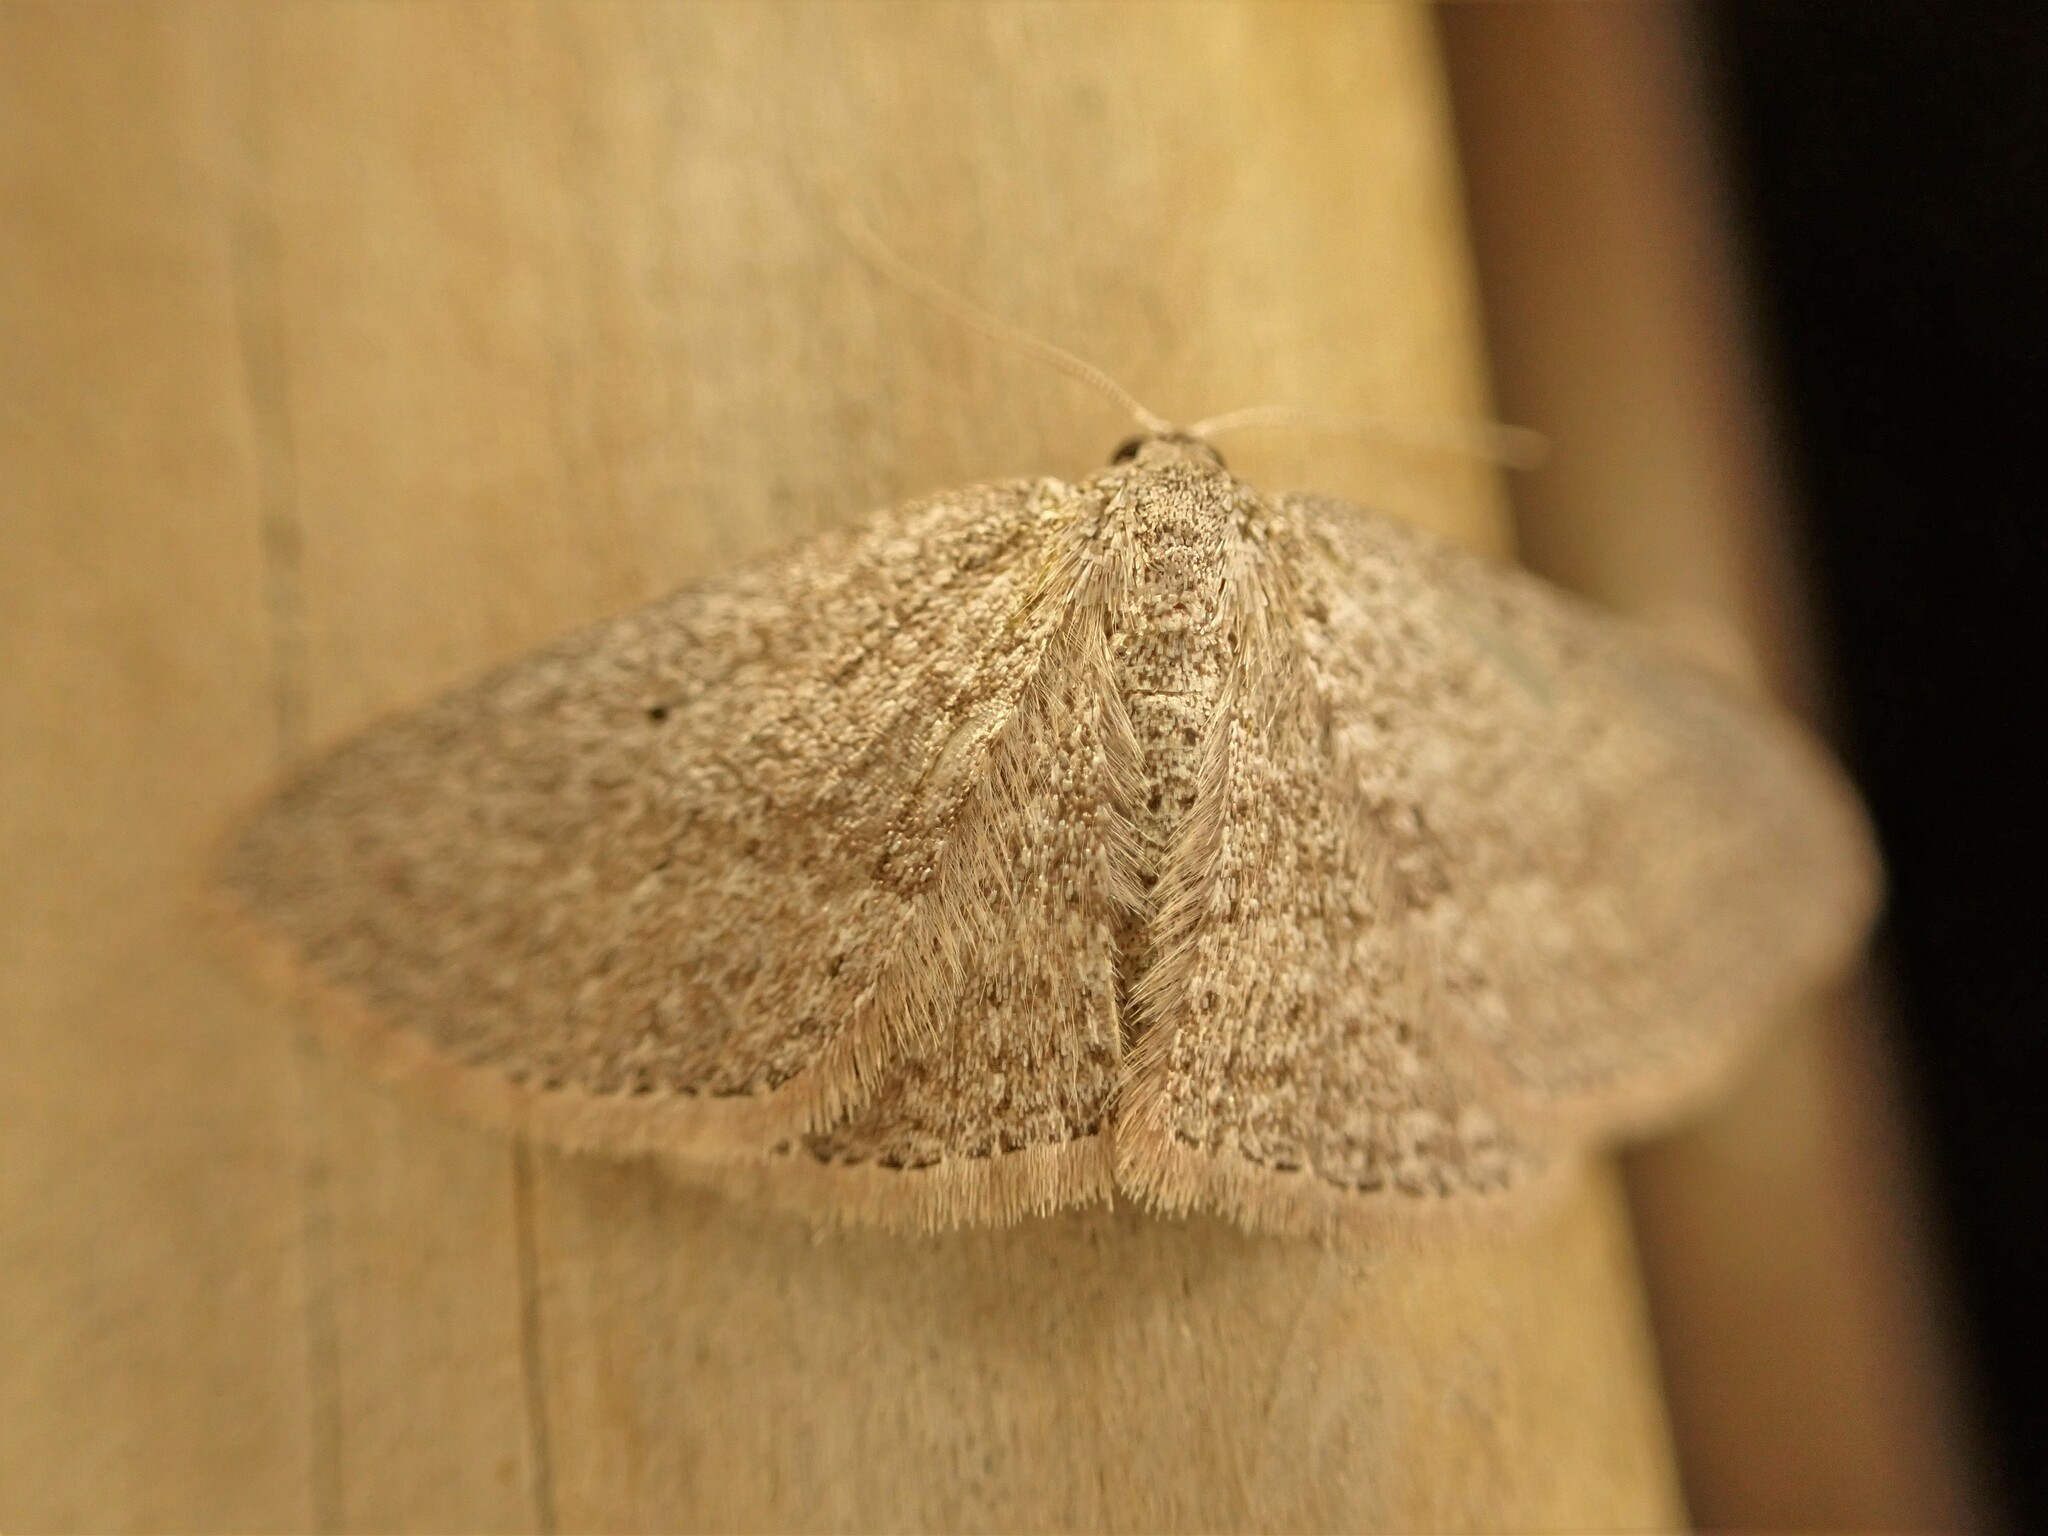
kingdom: Animalia
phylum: Arthropoda
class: Insecta
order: Lepidoptera
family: Geometridae
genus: Poecilasthena
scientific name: Poecilasthena schistaria
